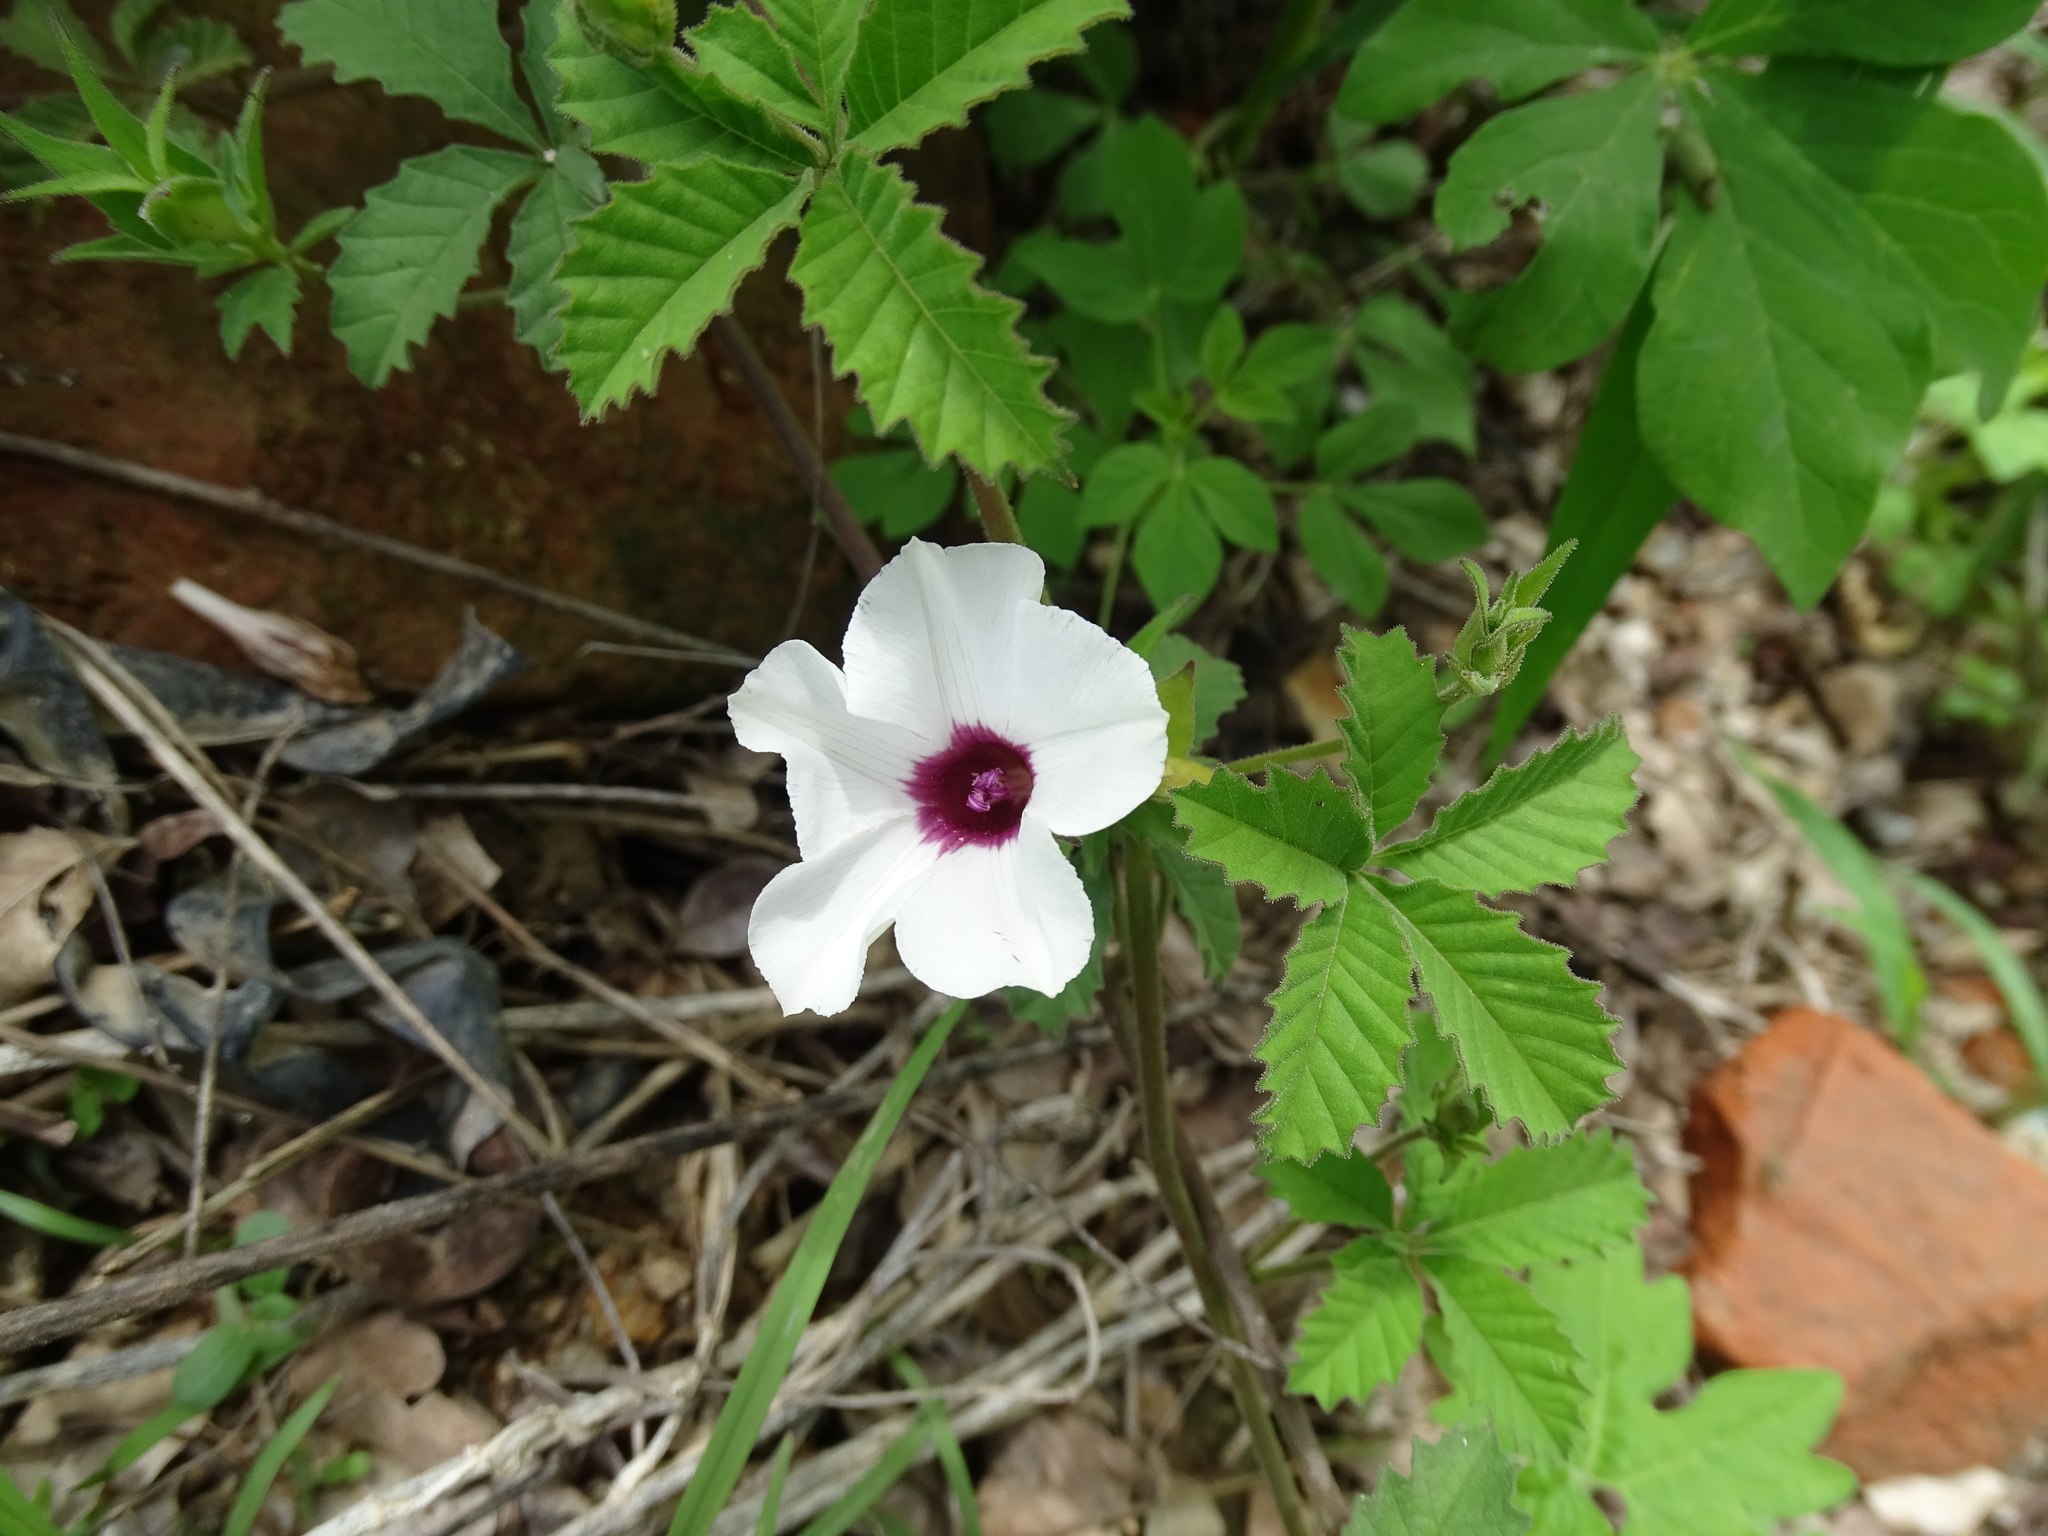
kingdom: Plantae
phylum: Tracheophyta
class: Magnoliopsida
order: Solanales
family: Convolvulaceae
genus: Distimake
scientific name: Distimake lobulibracteatus
